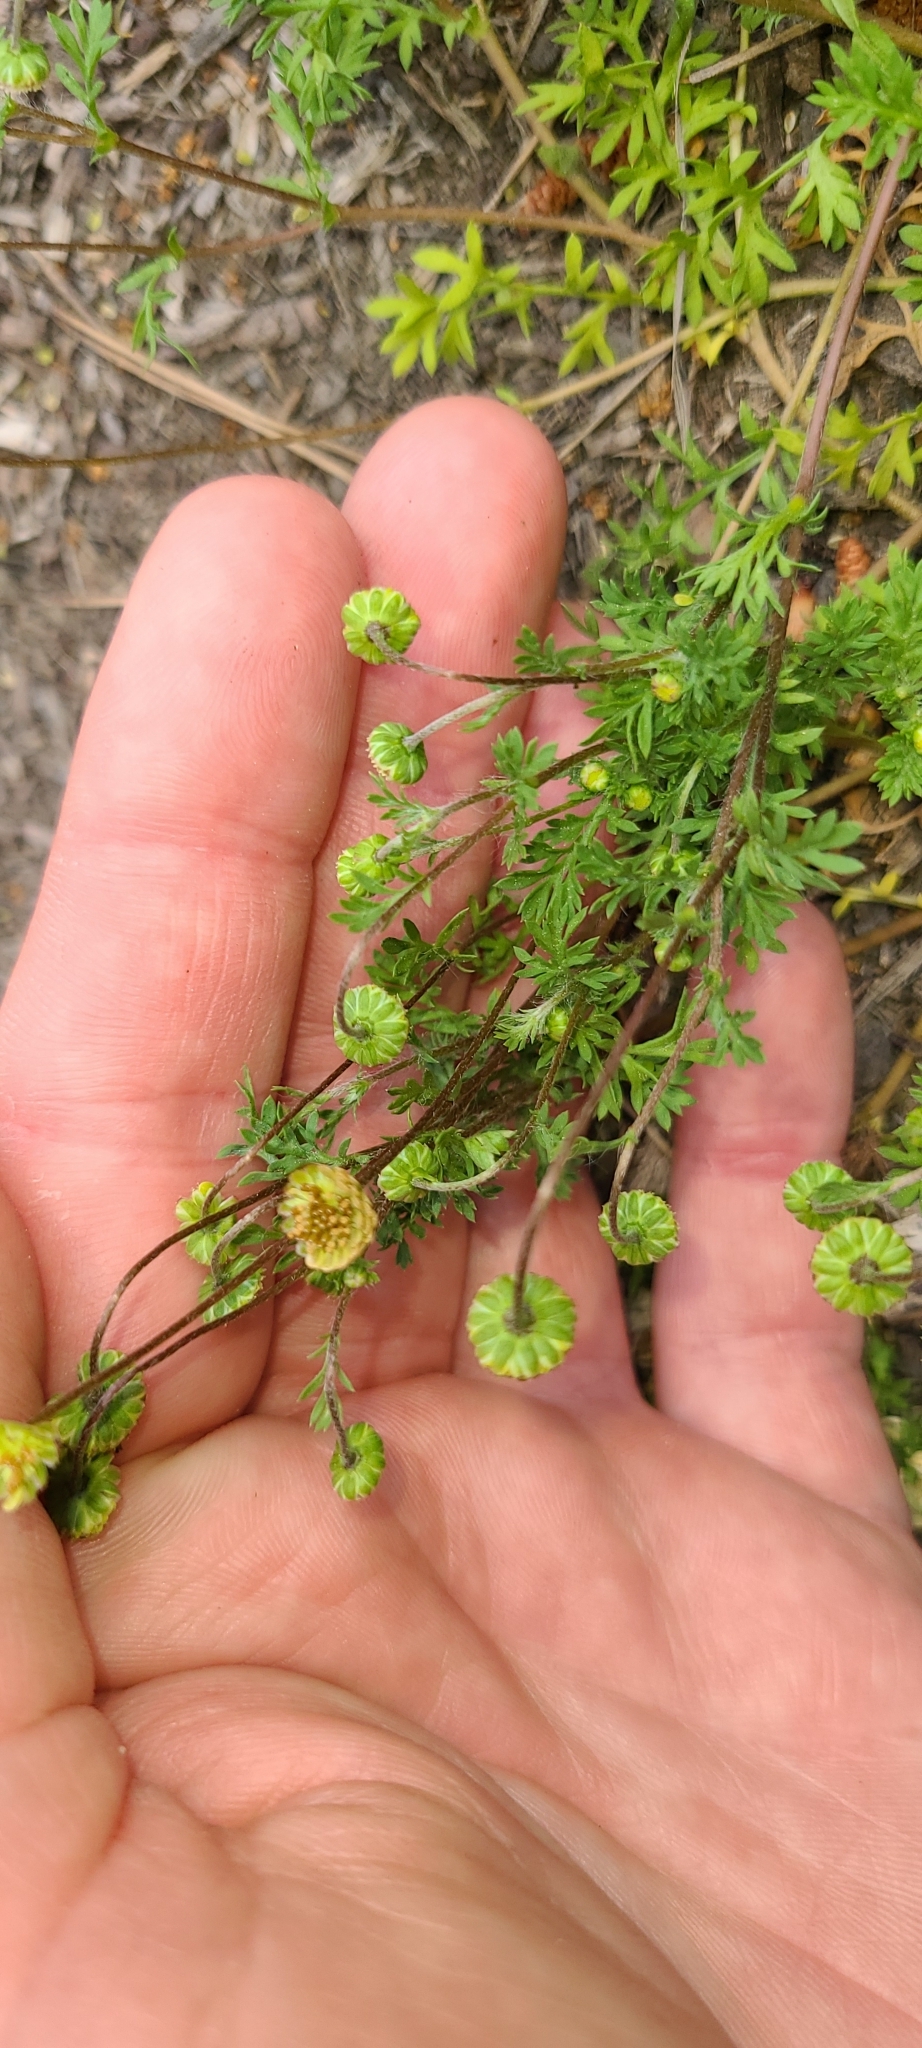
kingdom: Plantae
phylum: Tracheophyta
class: Magnoliopsida
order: Asterales
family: Asteraceae
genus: Cotula
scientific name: Cotula australis
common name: Australian waterbuttons
